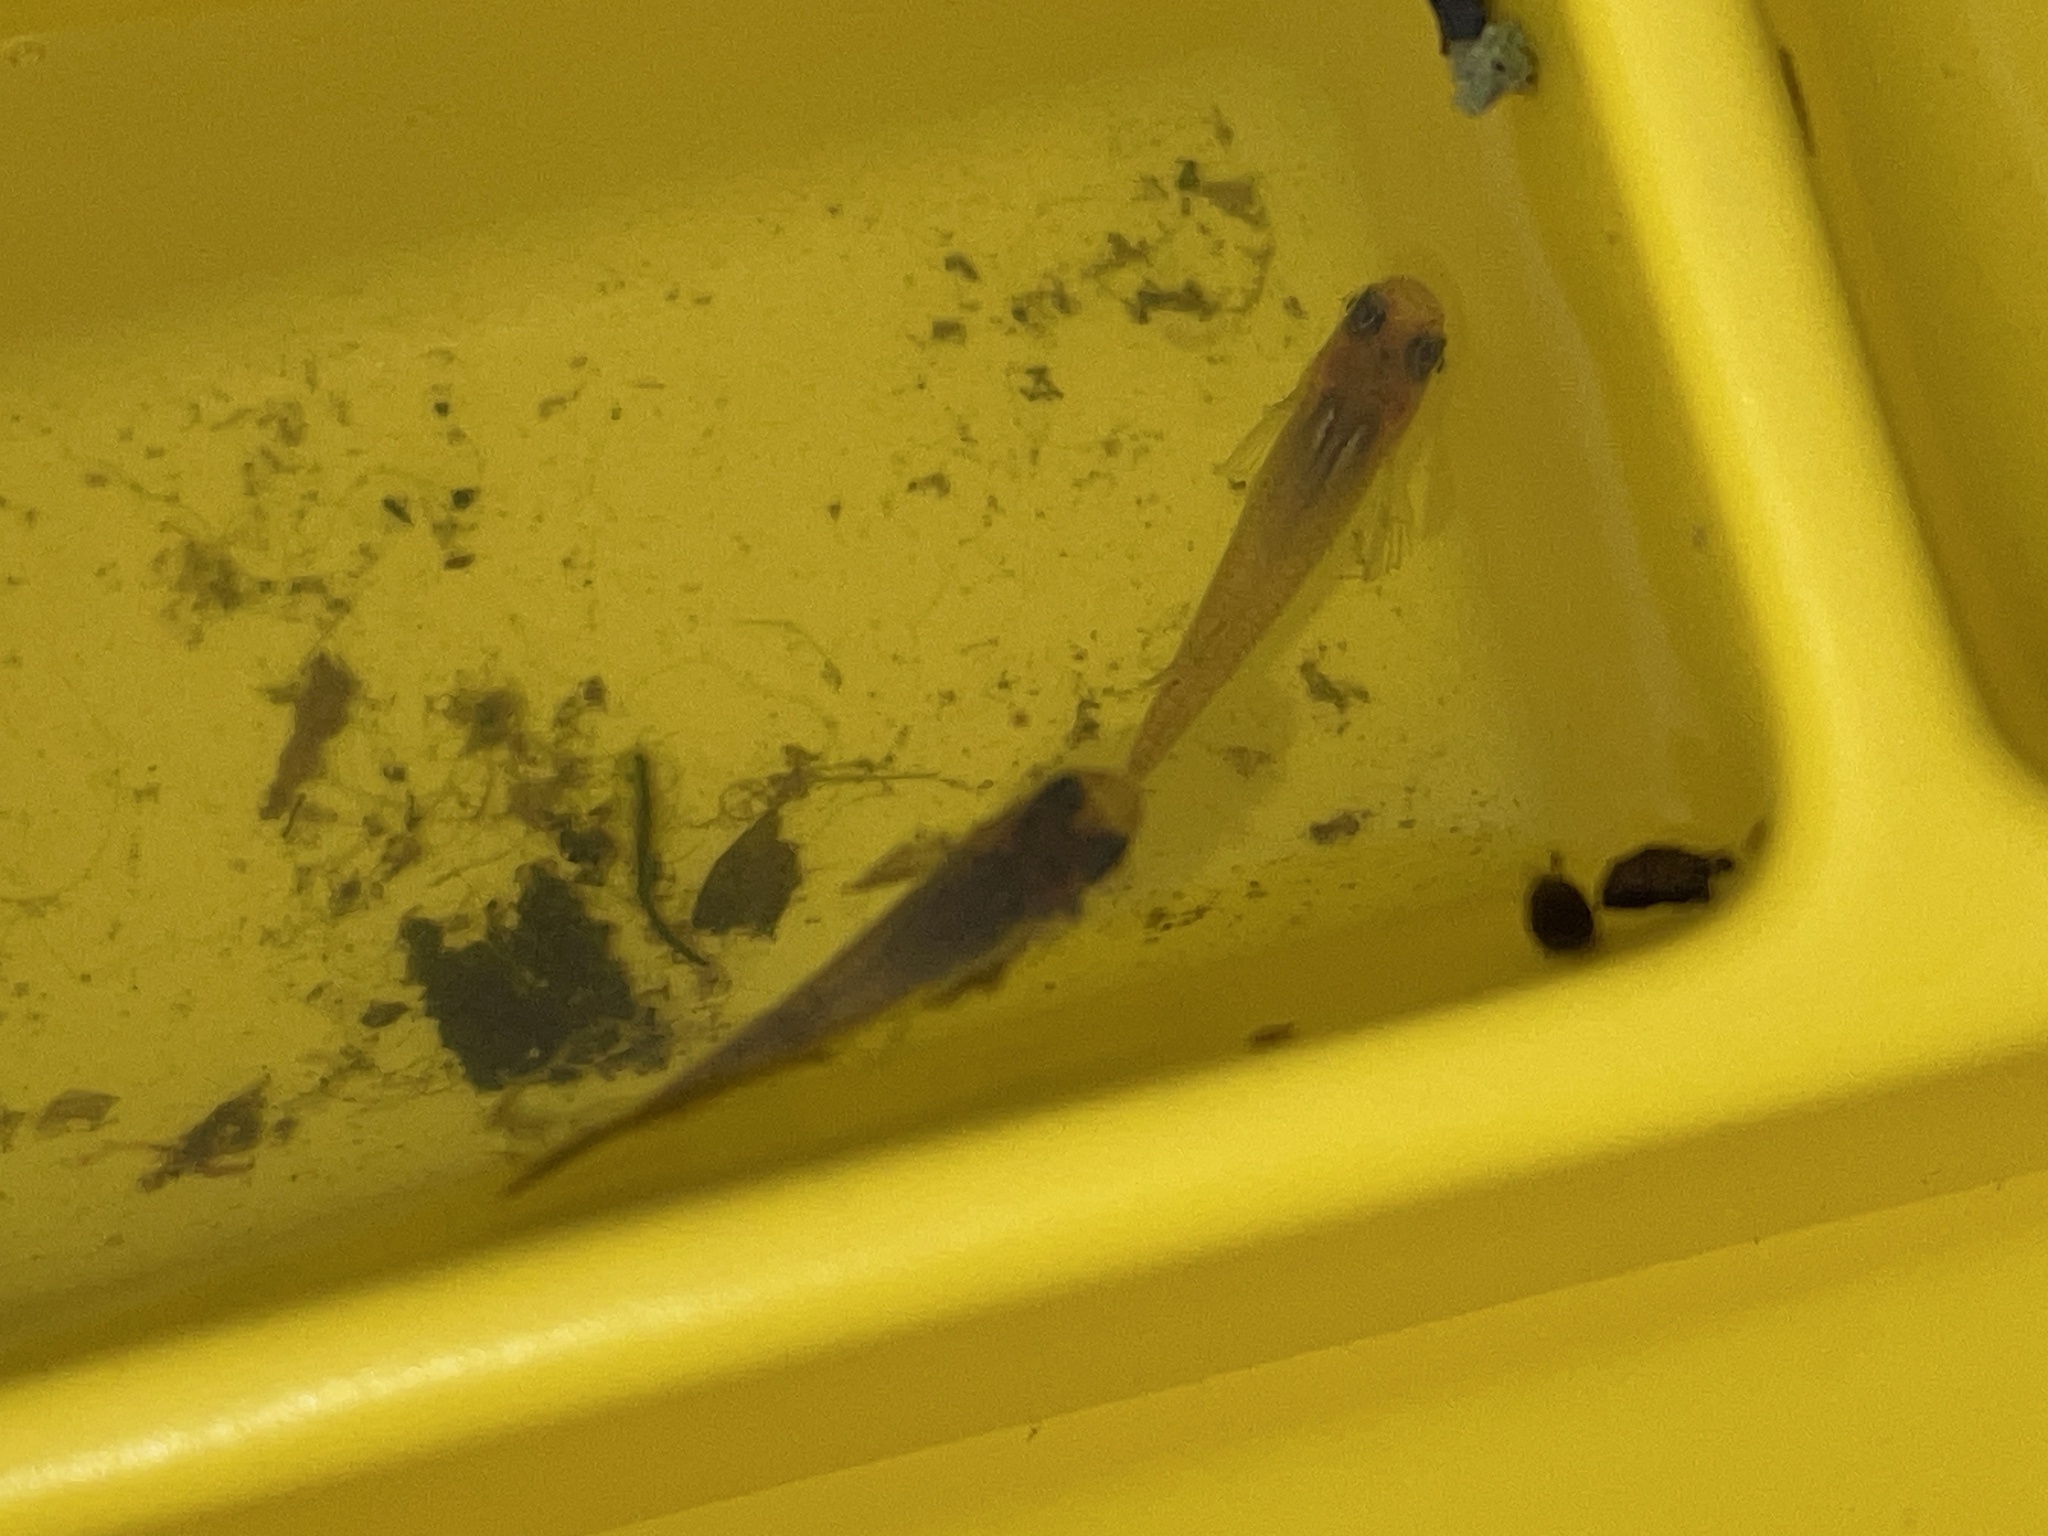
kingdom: Animalia
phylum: Chordata
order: Cyprinodontiformes
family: Poeciliidae
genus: Gambusia
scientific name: Gambusia holbrooki
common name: Eastern mosquitofish
